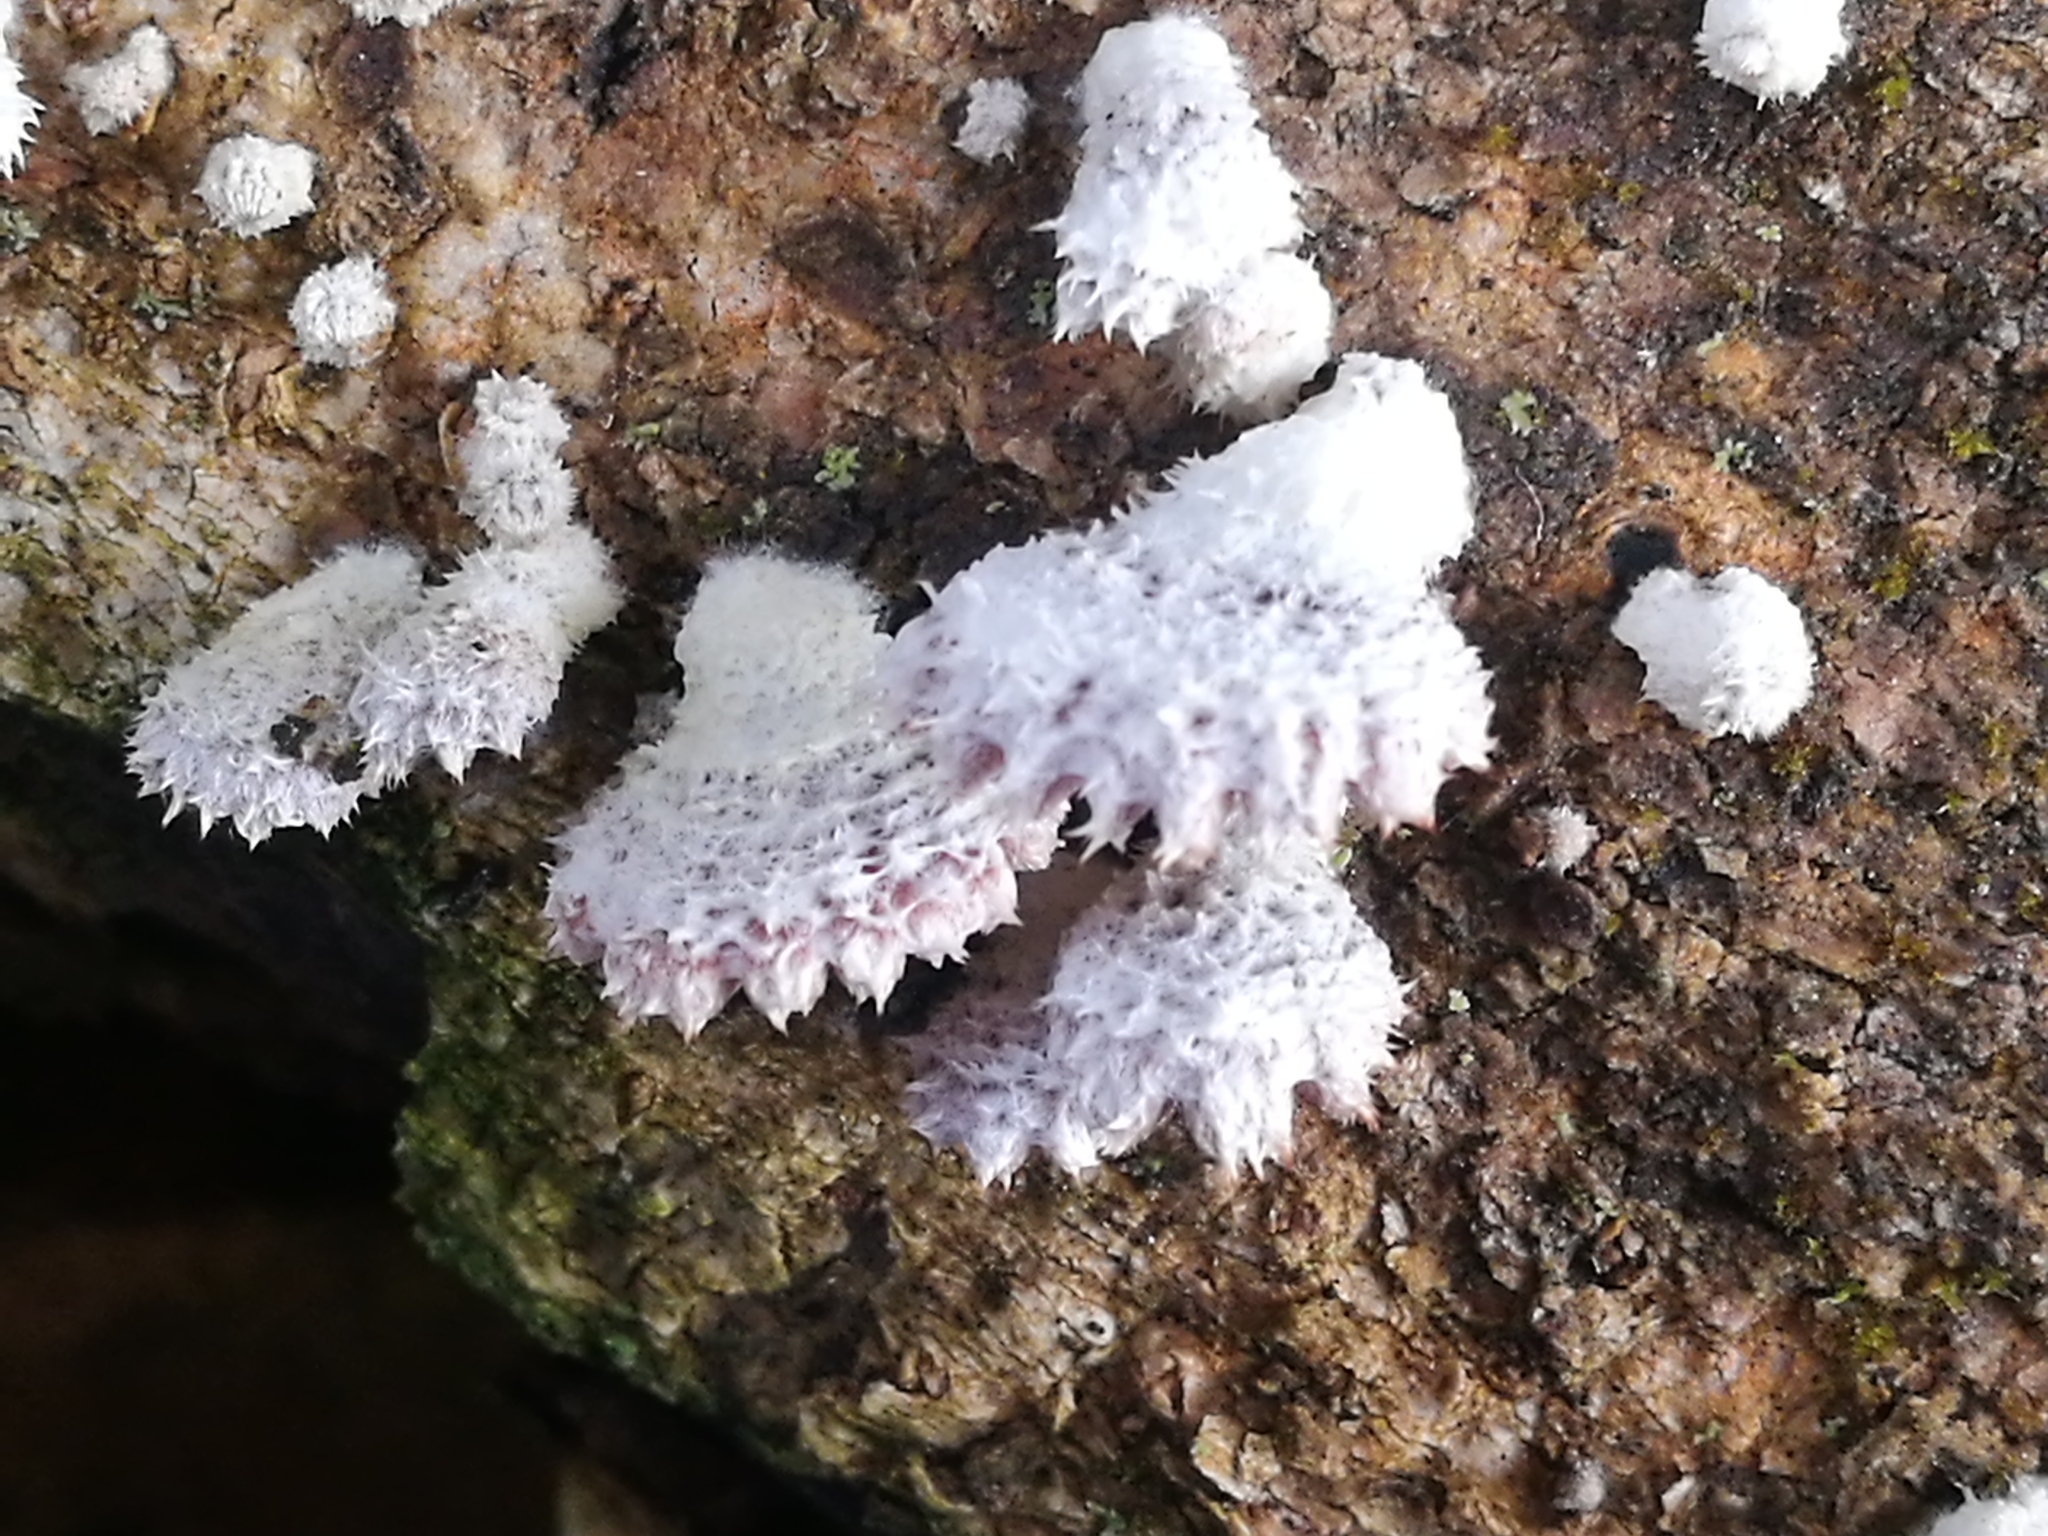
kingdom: Fungi
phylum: Basidiomycota
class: Agaricomycetes
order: Agaricales
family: Schizophyllaceae
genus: Schizophyllum
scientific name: Schizophyllum commune
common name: Common porecrust
